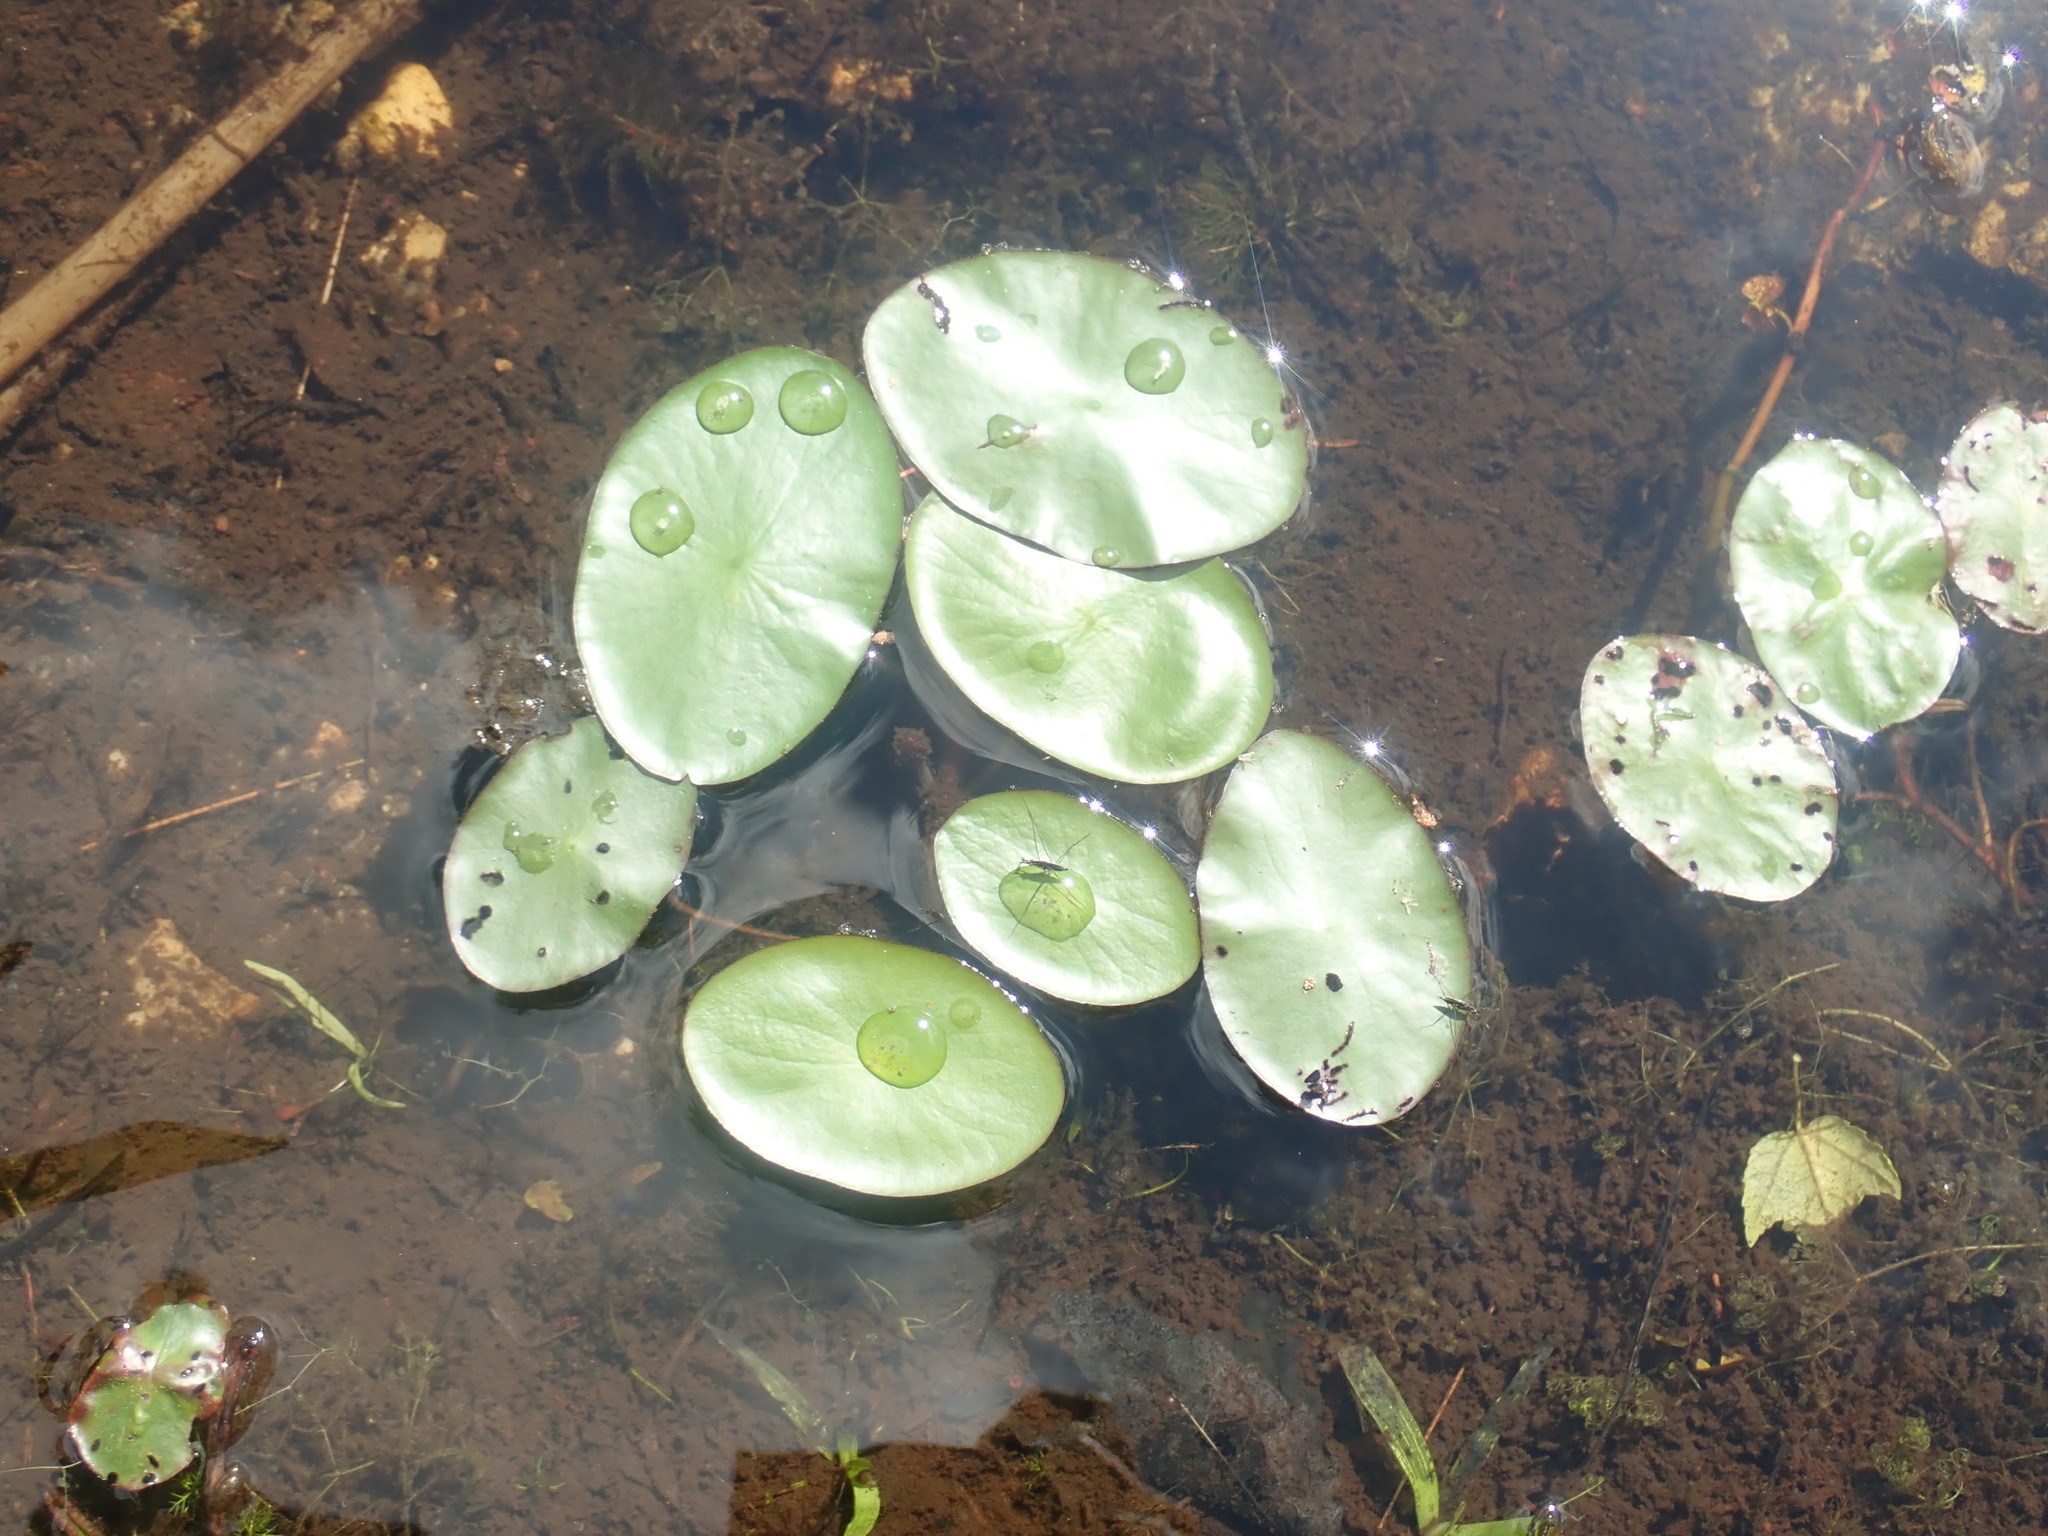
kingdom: Plantae
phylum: Tracheophyta
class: Magnoliopsida
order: Nymphaeales
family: Cabombaceae
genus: Brasenia
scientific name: Brasenia schreberi
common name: Water-shield
